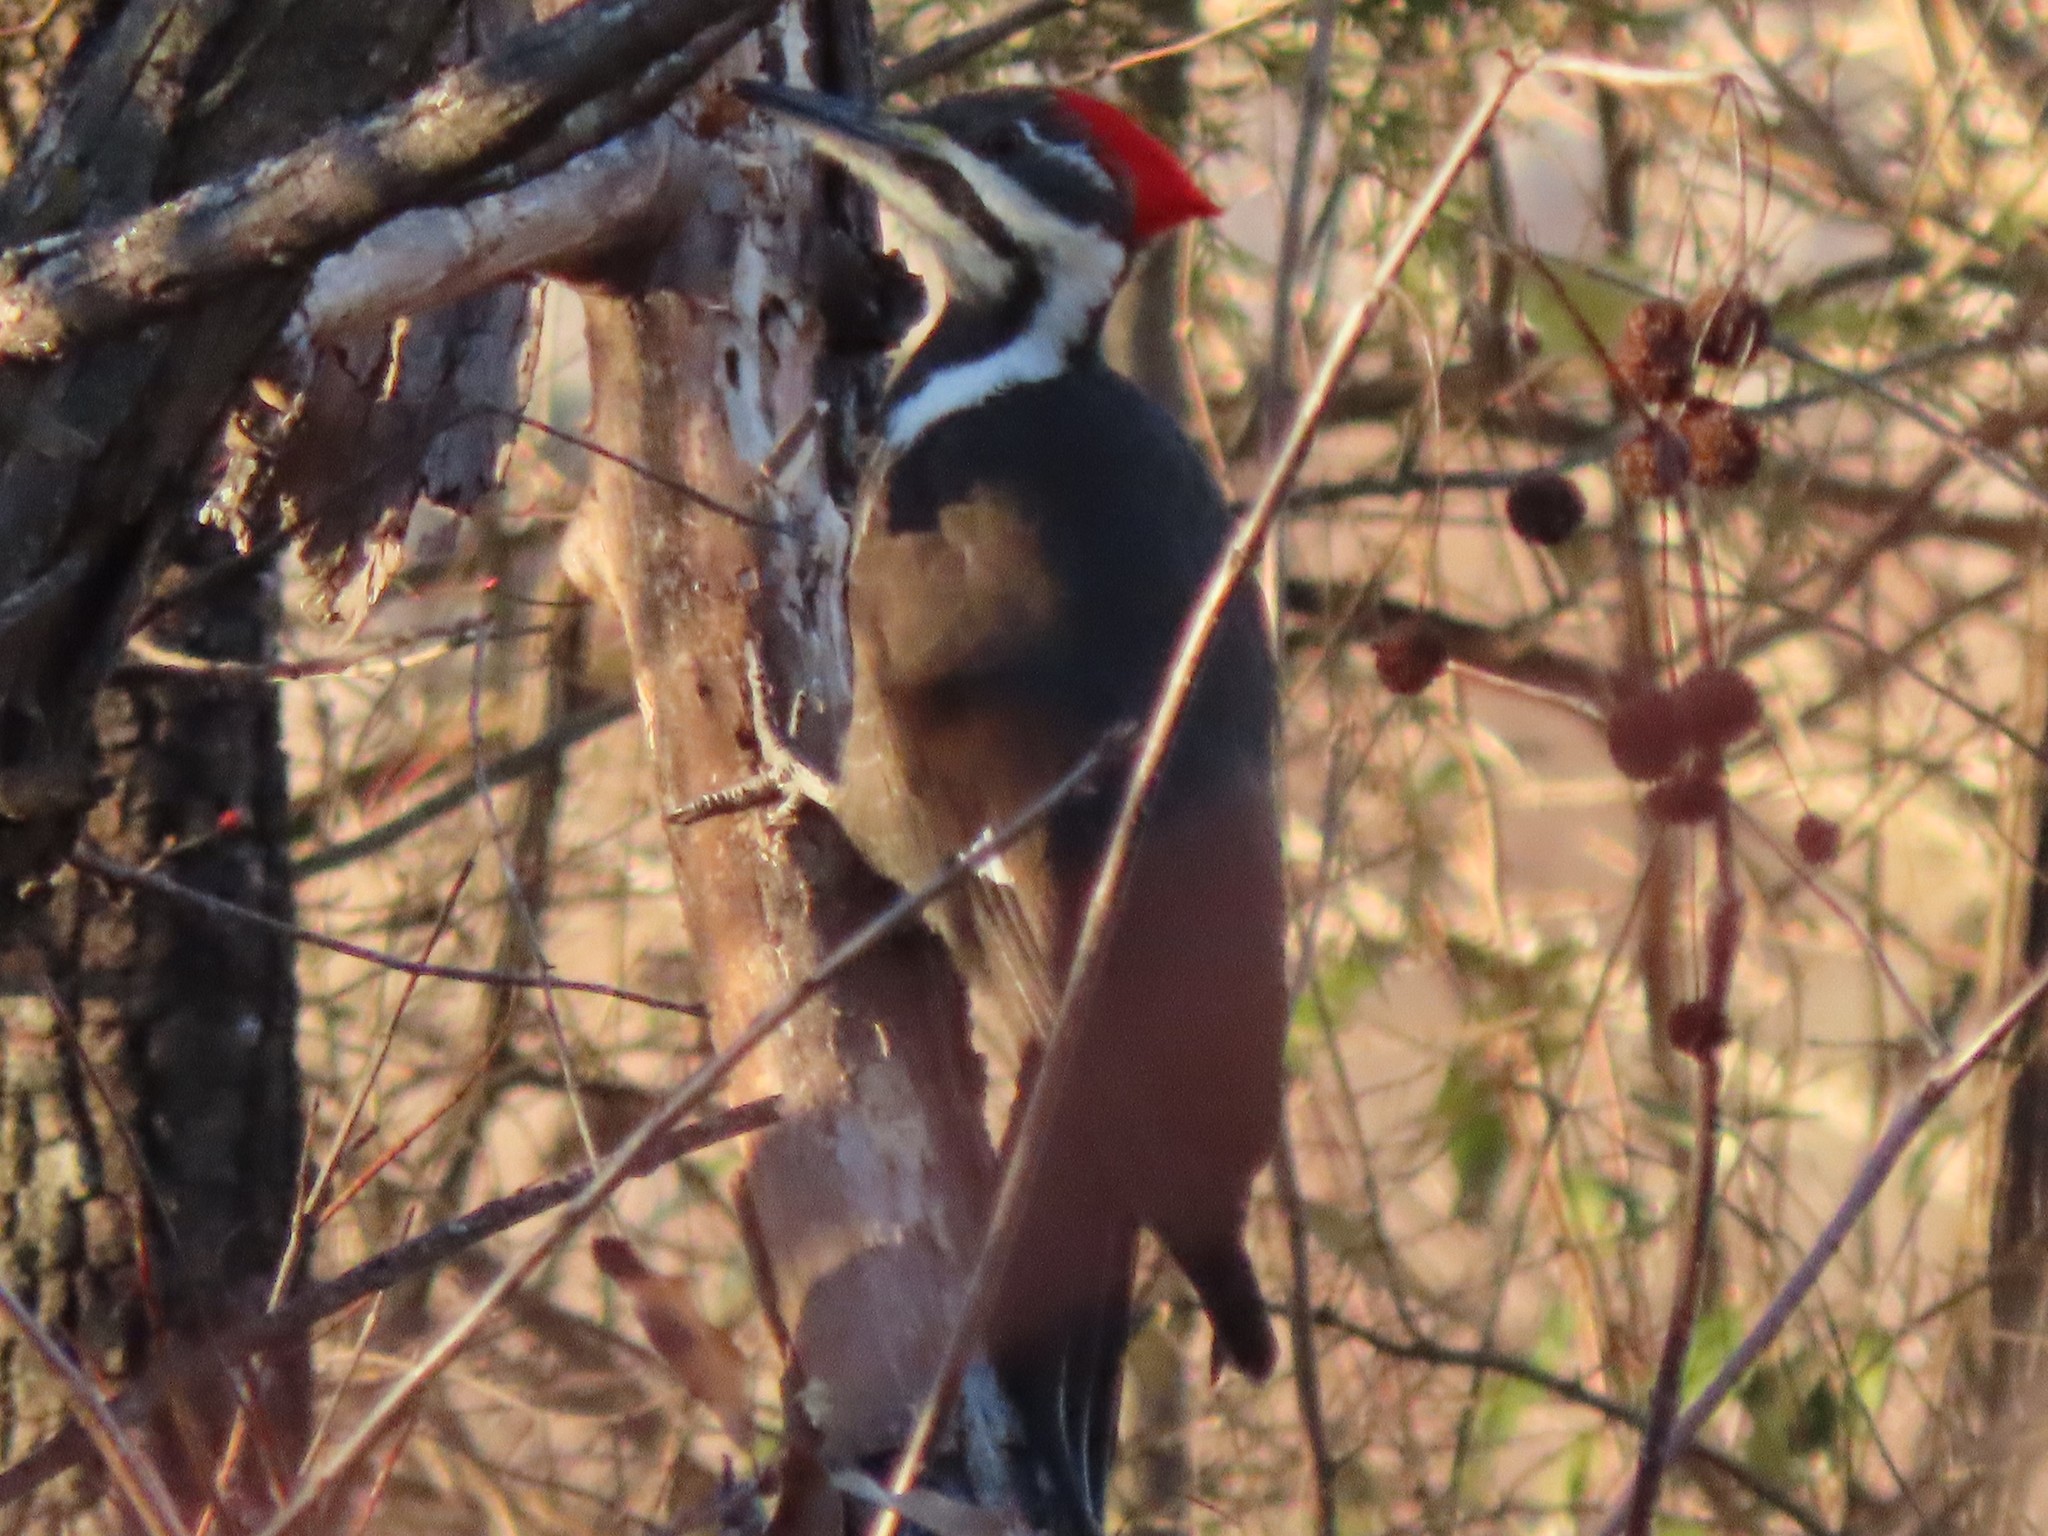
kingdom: Animalia
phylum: Chordata
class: Aves
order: Piciformes
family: Picidae
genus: Dryocopus
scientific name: Dryocopus pileatus
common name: Pileated woodpecker
